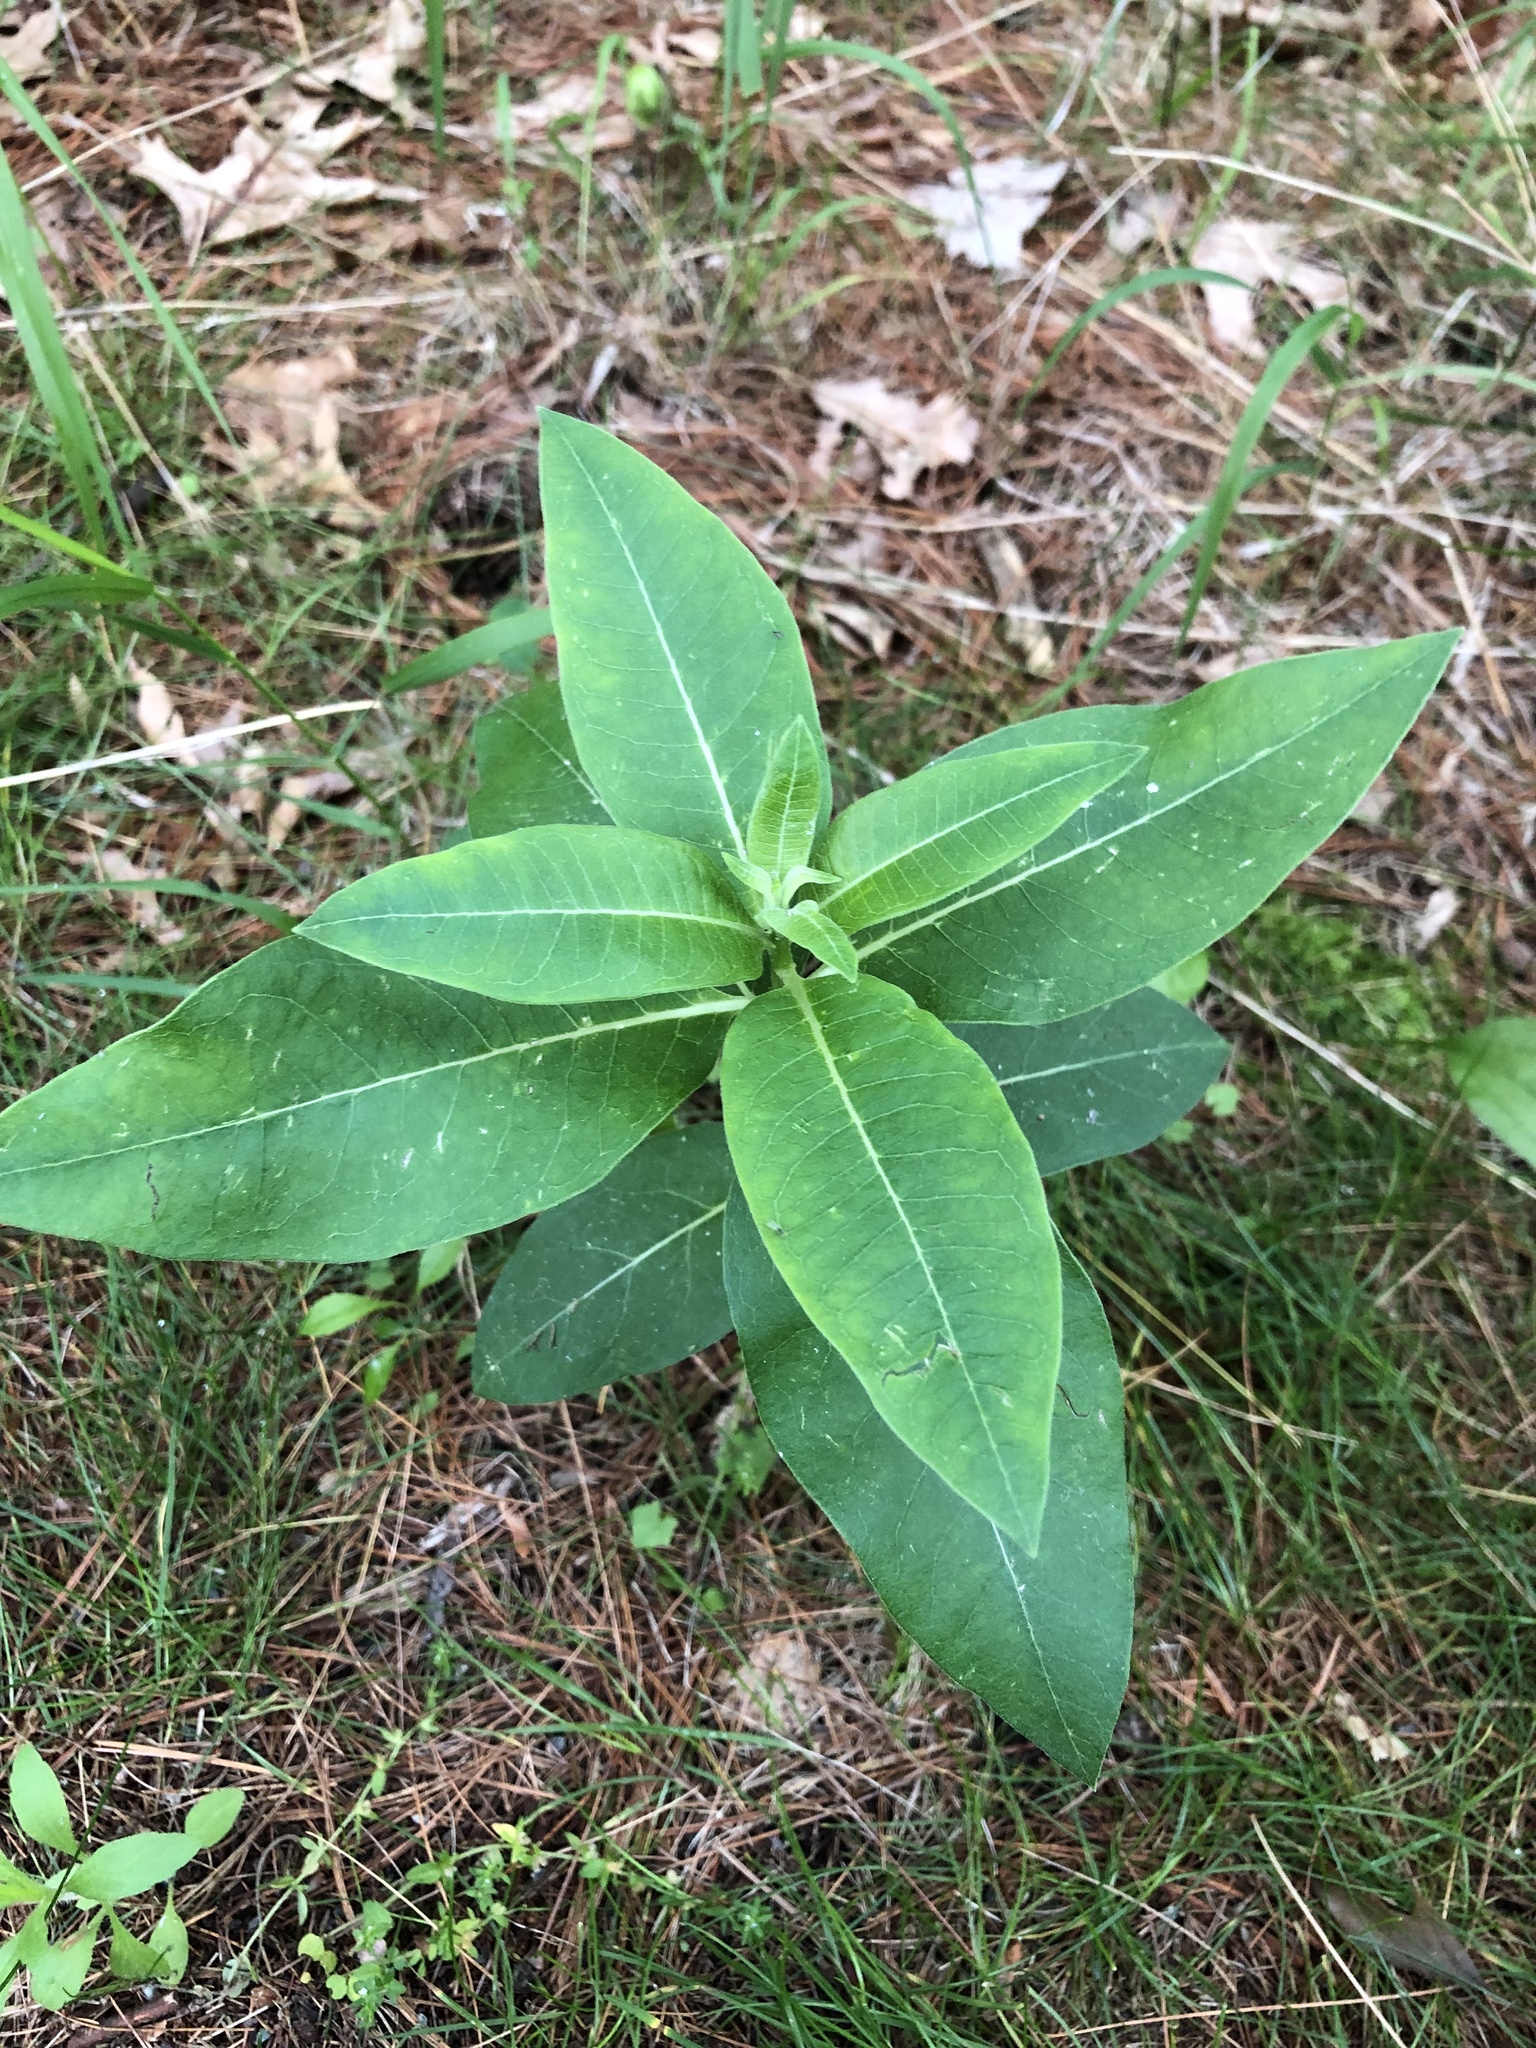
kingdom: Plantae
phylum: Tracheophyta
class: Magnoliopsida
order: Gentianales
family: Apocynaceae
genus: Asclepias
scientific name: Asclepias syriaca
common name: Common milkweed
